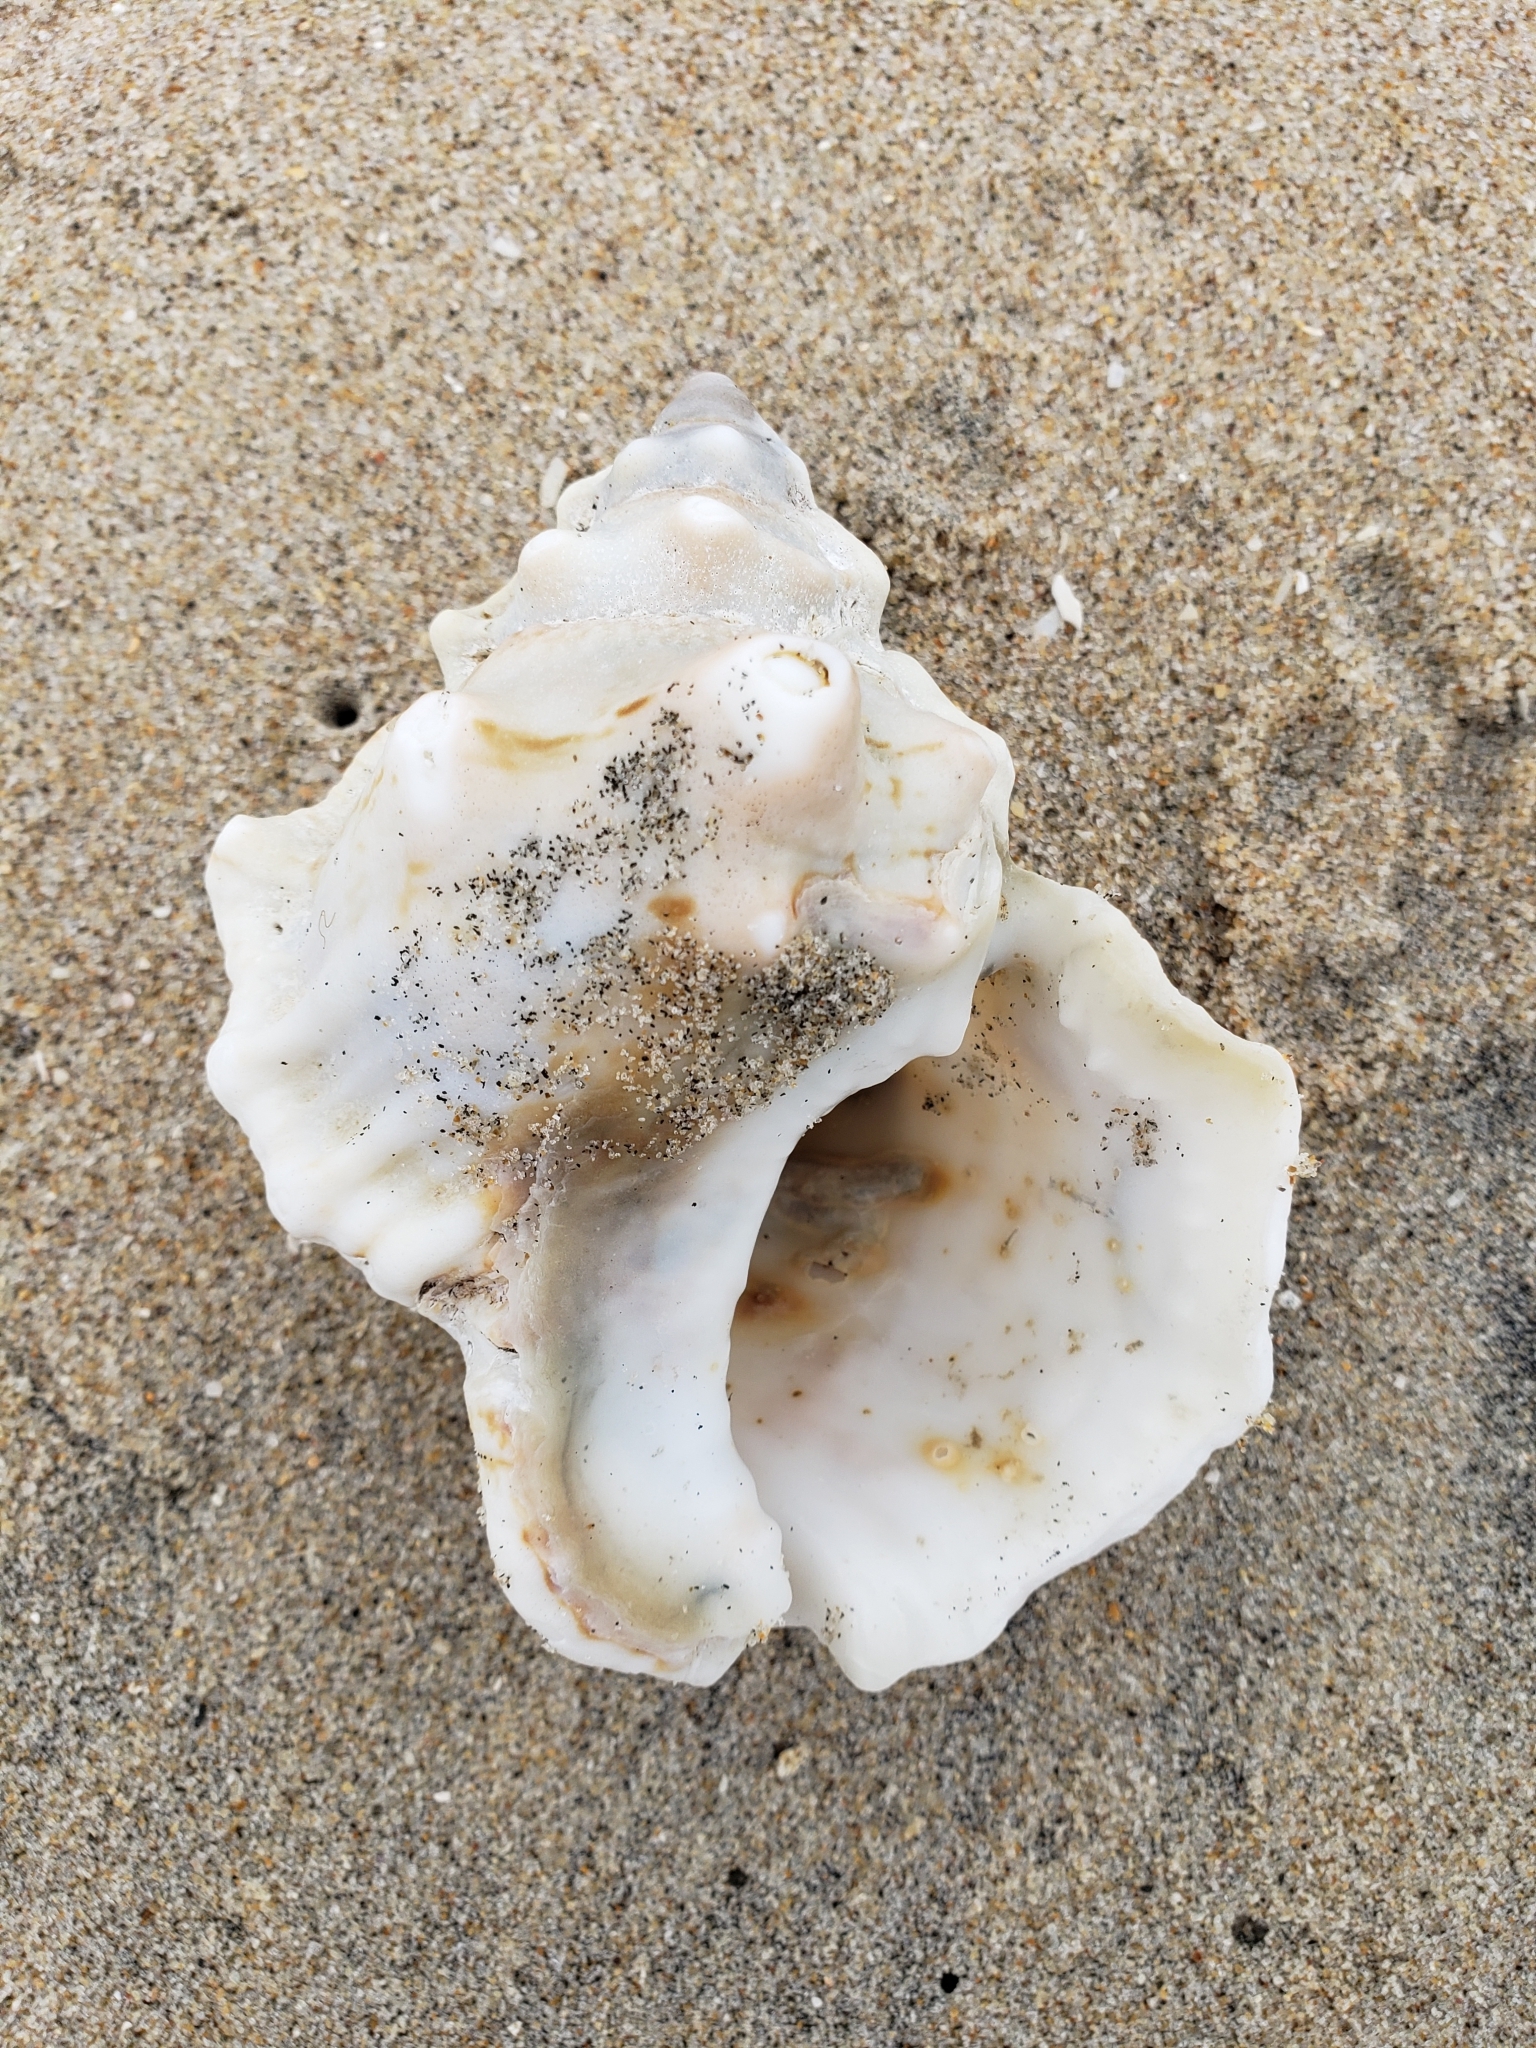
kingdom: Animalia
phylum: Mollusca
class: Gastropoda
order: Littorinimorpha
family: Bursidae
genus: Crossata
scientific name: Crossata californica
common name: California frogsnail
